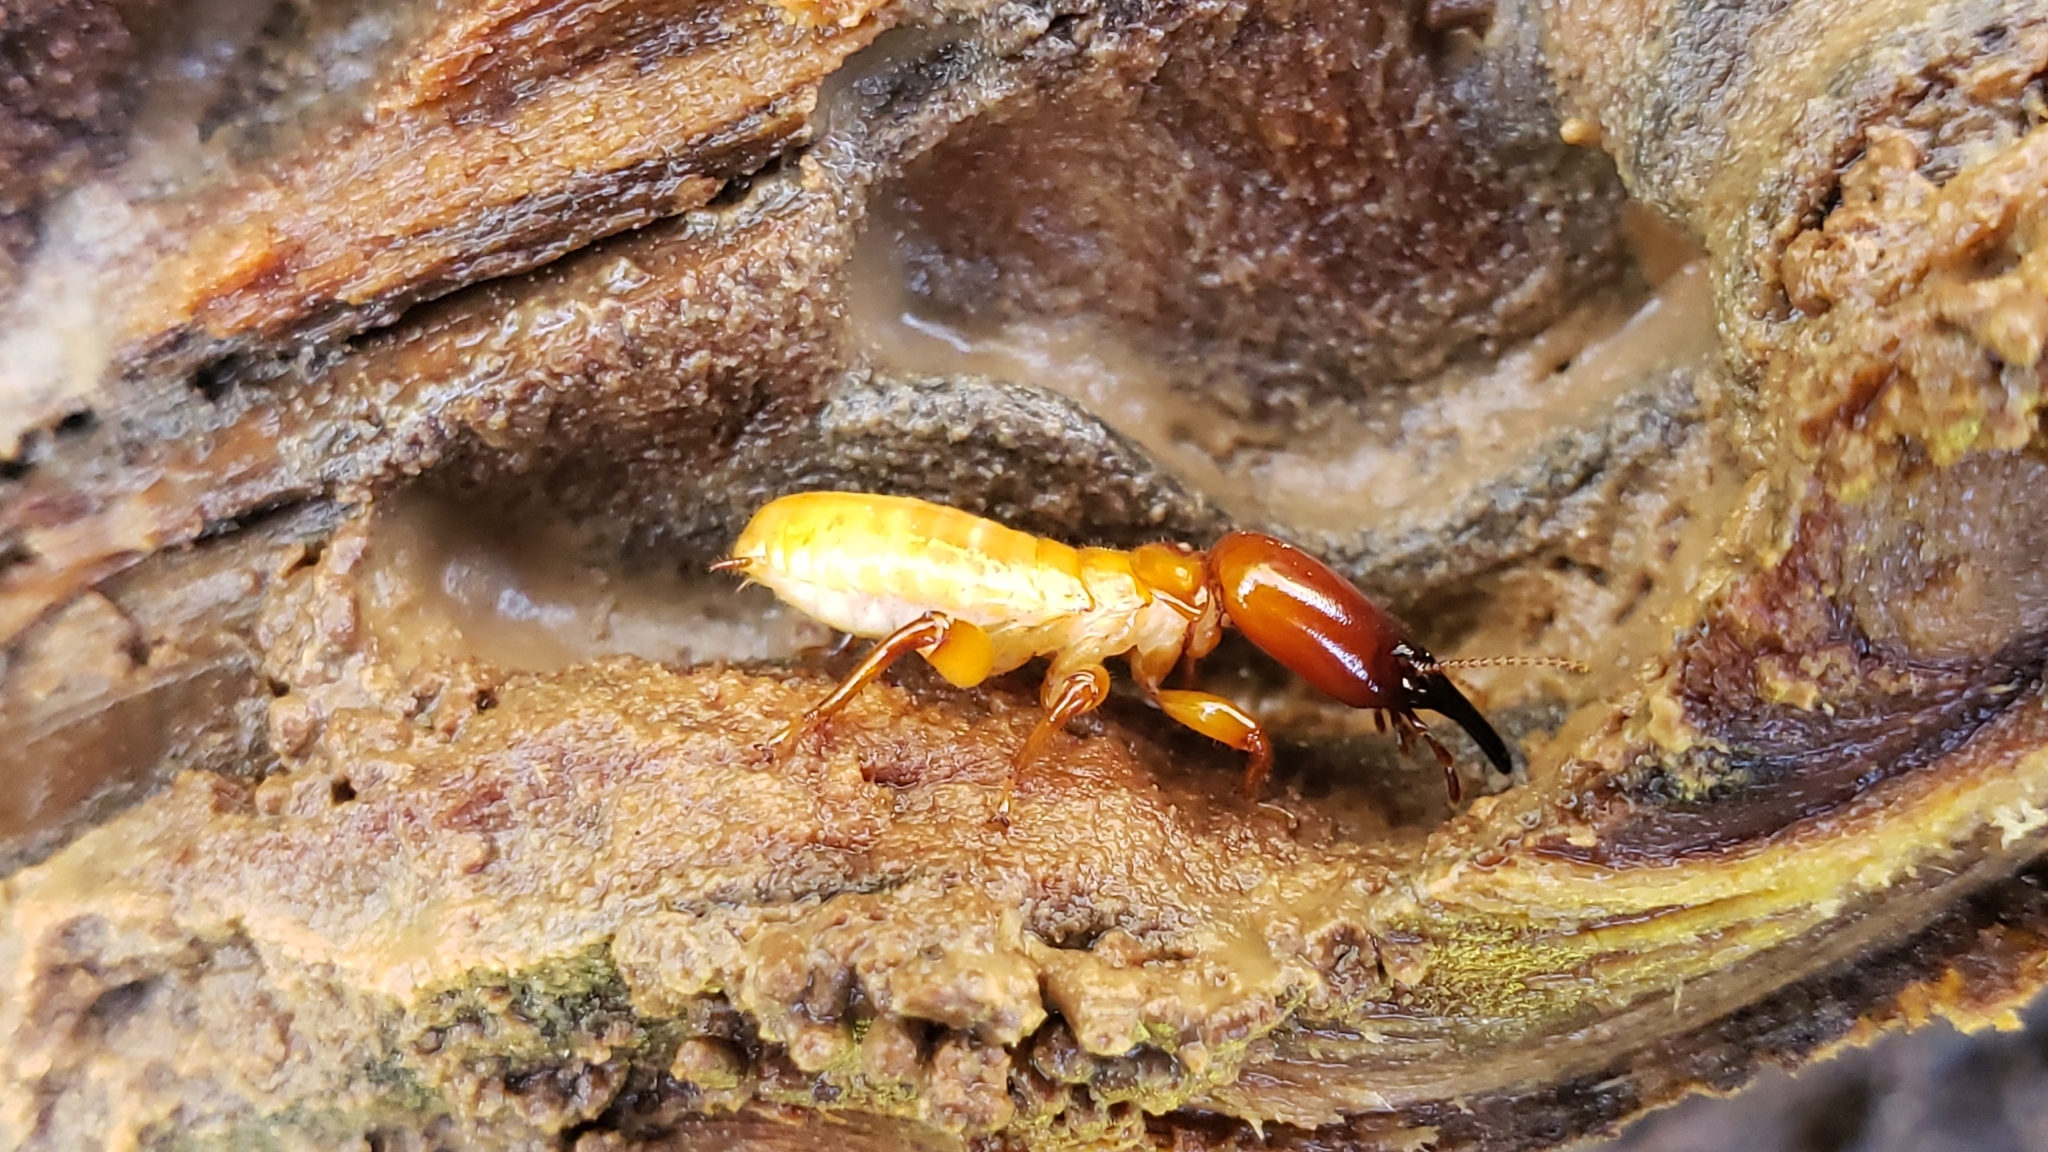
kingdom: Animalia
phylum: Arthropoda
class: Insecta
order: Blattodea
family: Archotermopsidae
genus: Zootermopsis
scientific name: Zootermopsis
